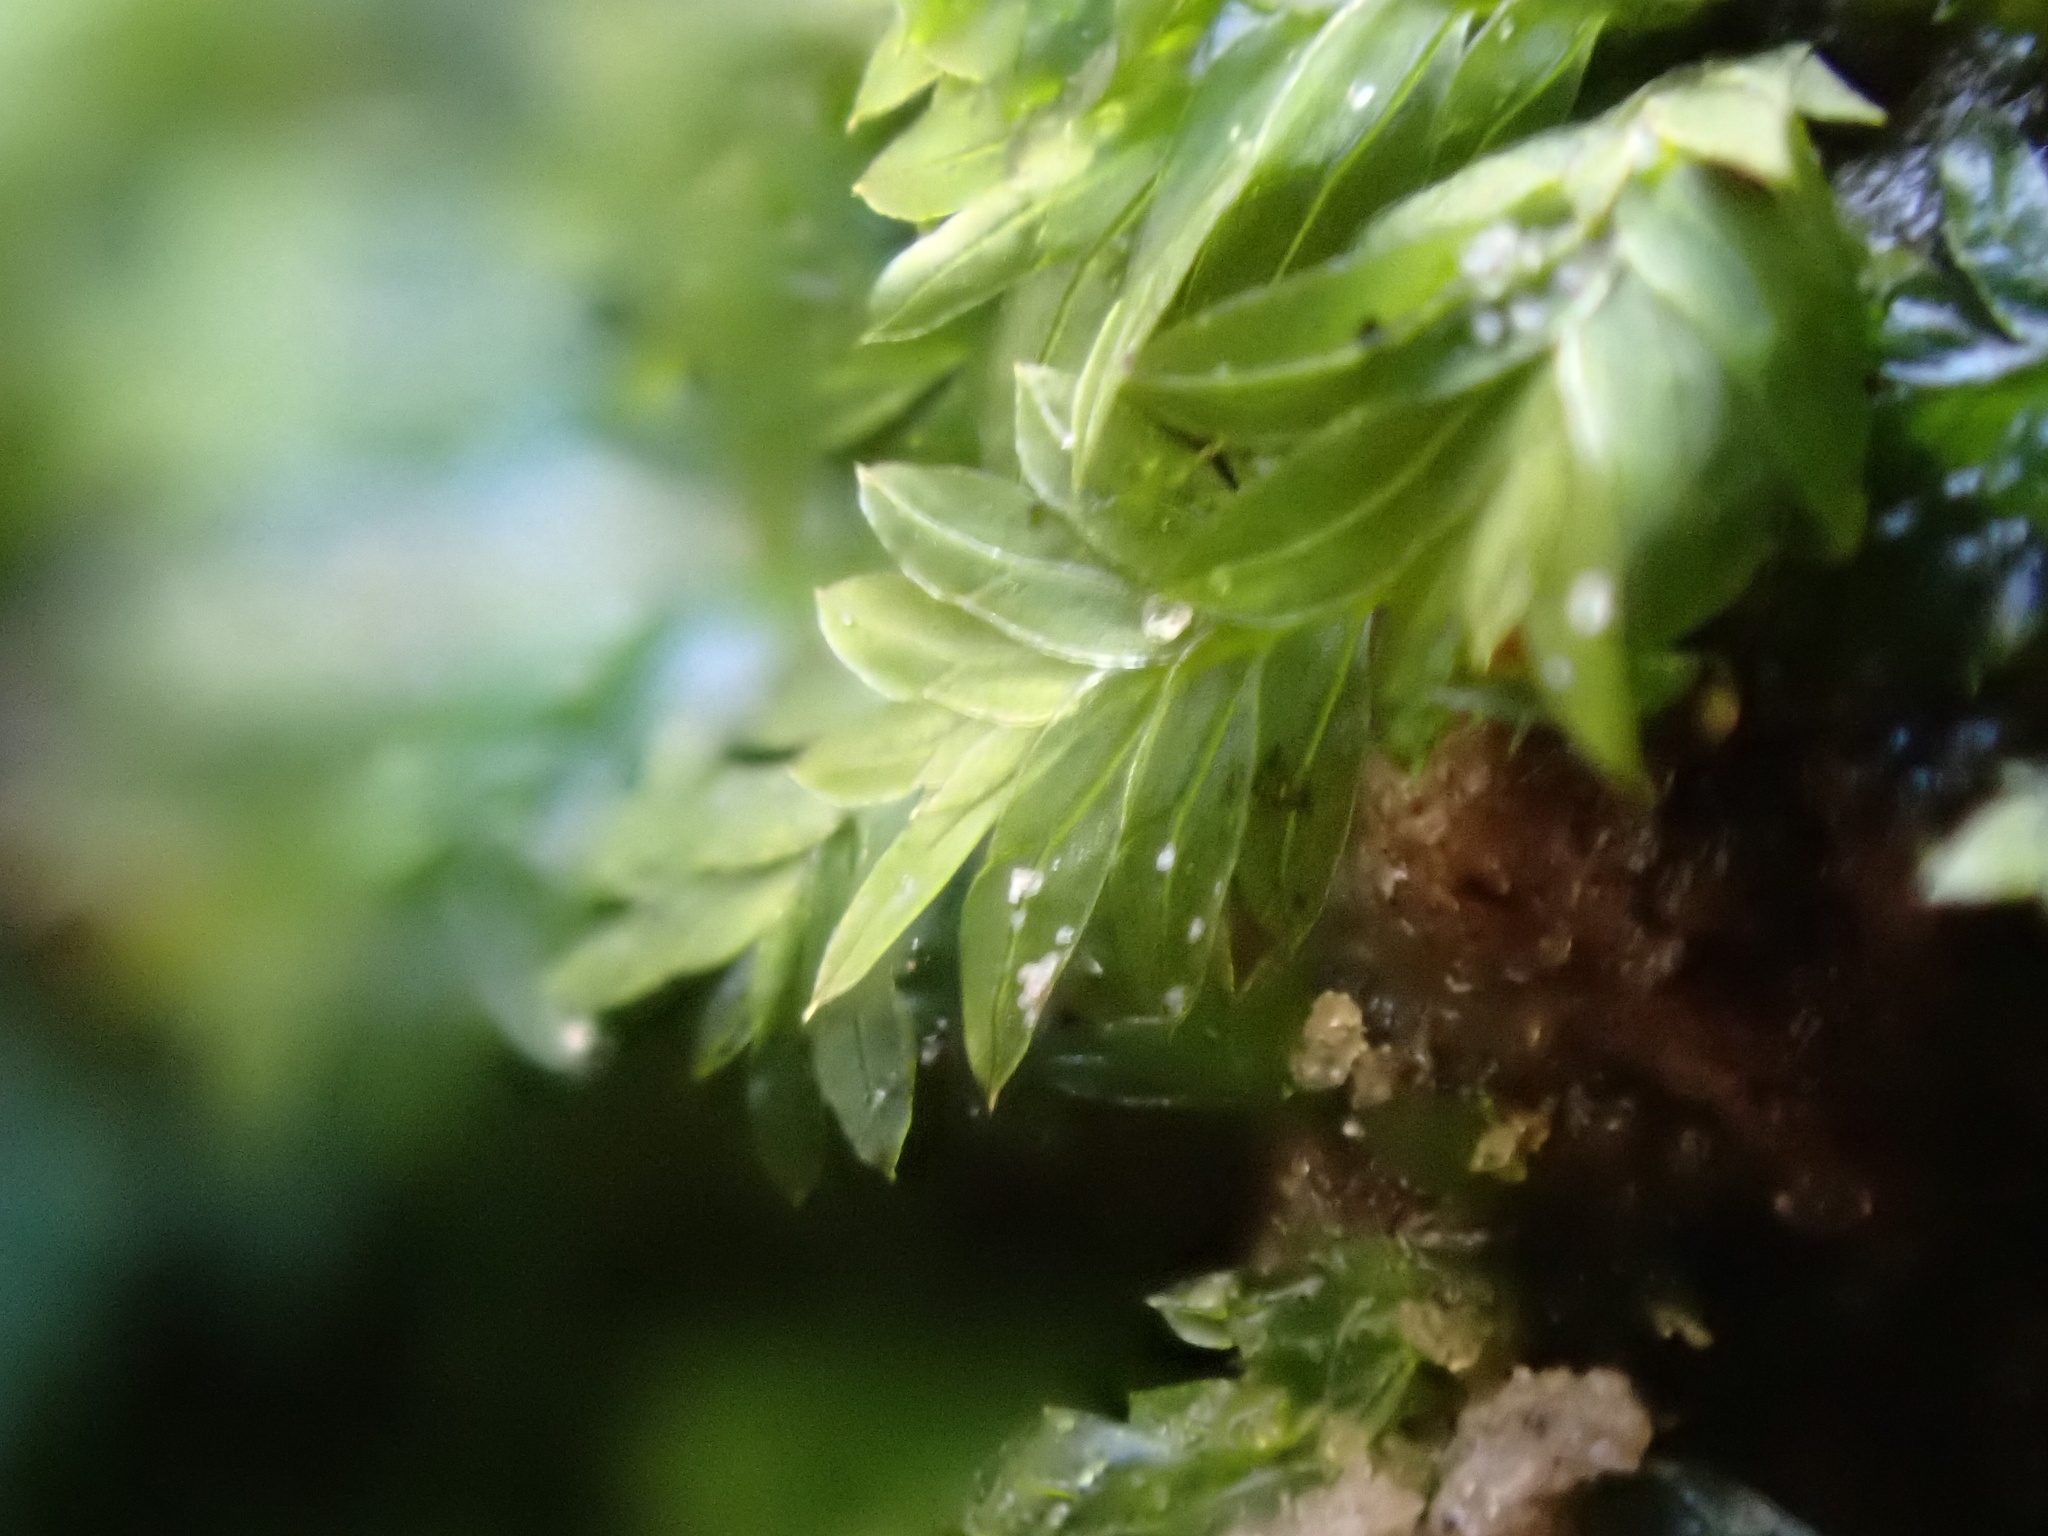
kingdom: Plantae
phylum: Bryophyta
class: Bryopsida
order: Dicranales
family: Fissidentaceae
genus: Fissidens
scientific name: Fissidens bryoides
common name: Lesser pocket moss
